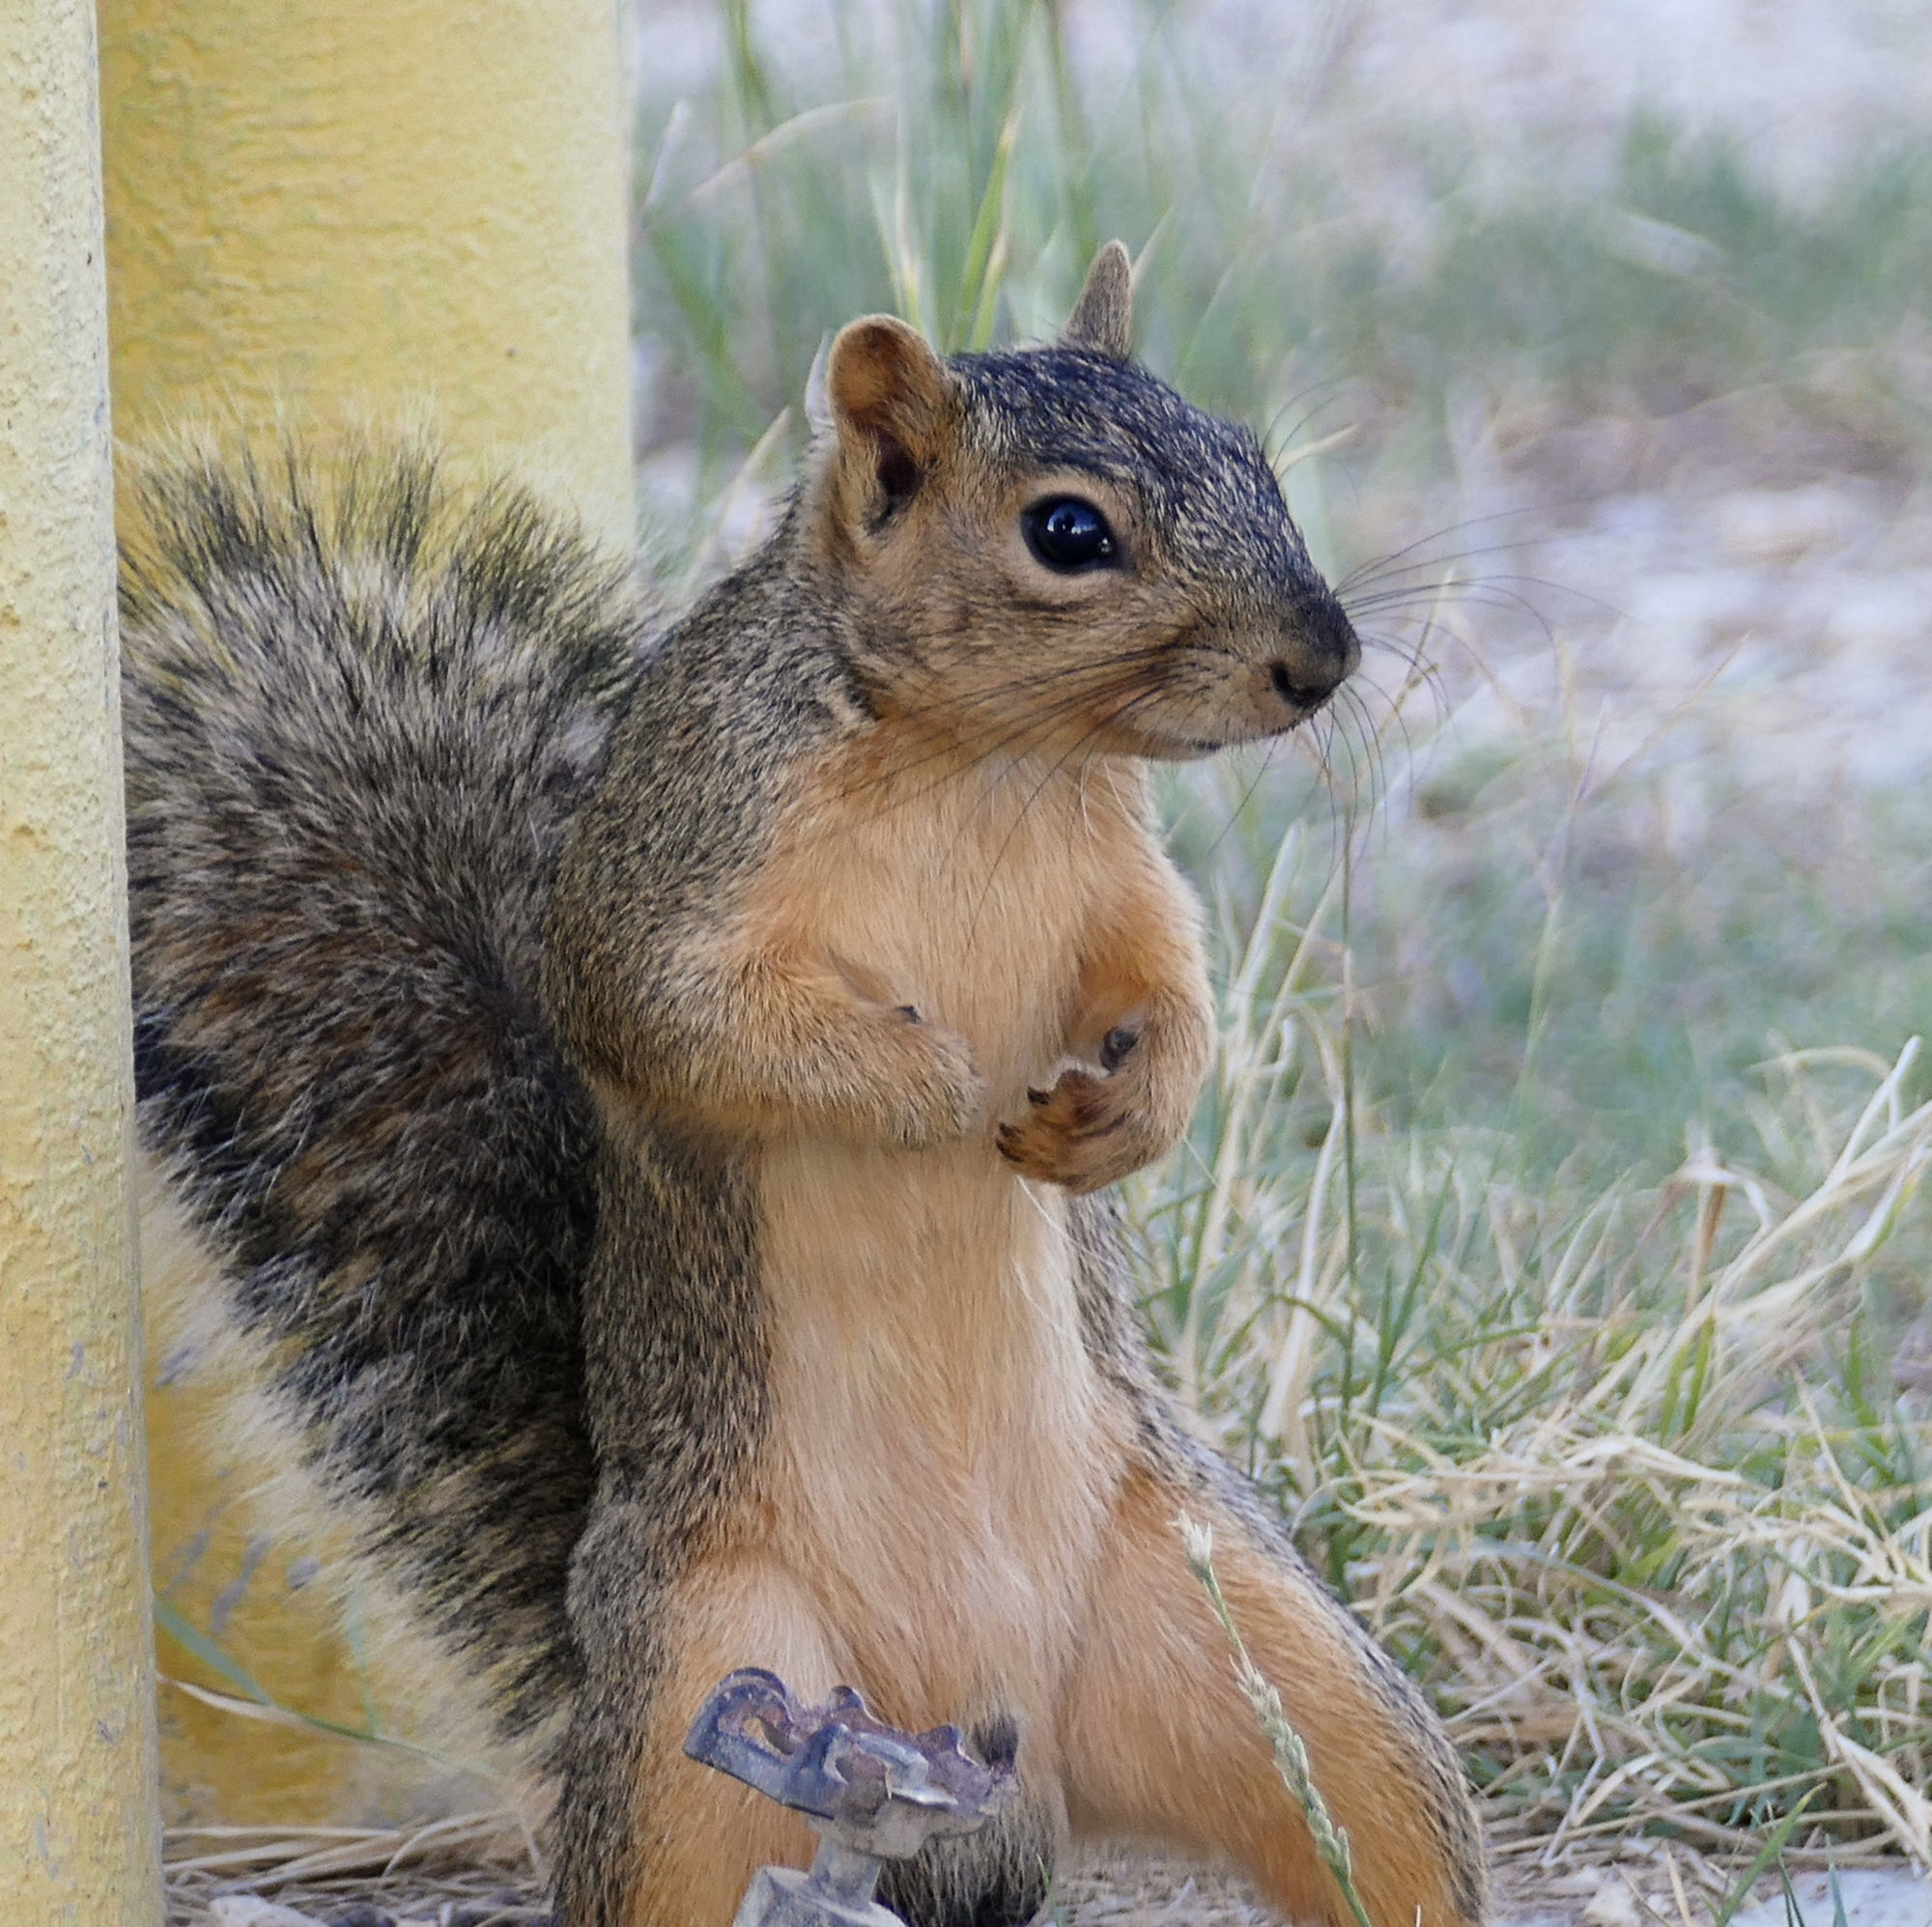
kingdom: Animalia
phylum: Chordata
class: Mammalia
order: Rodentia
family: Sciuridae
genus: Sciurus
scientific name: Sciurus niger
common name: Fox squirrel
